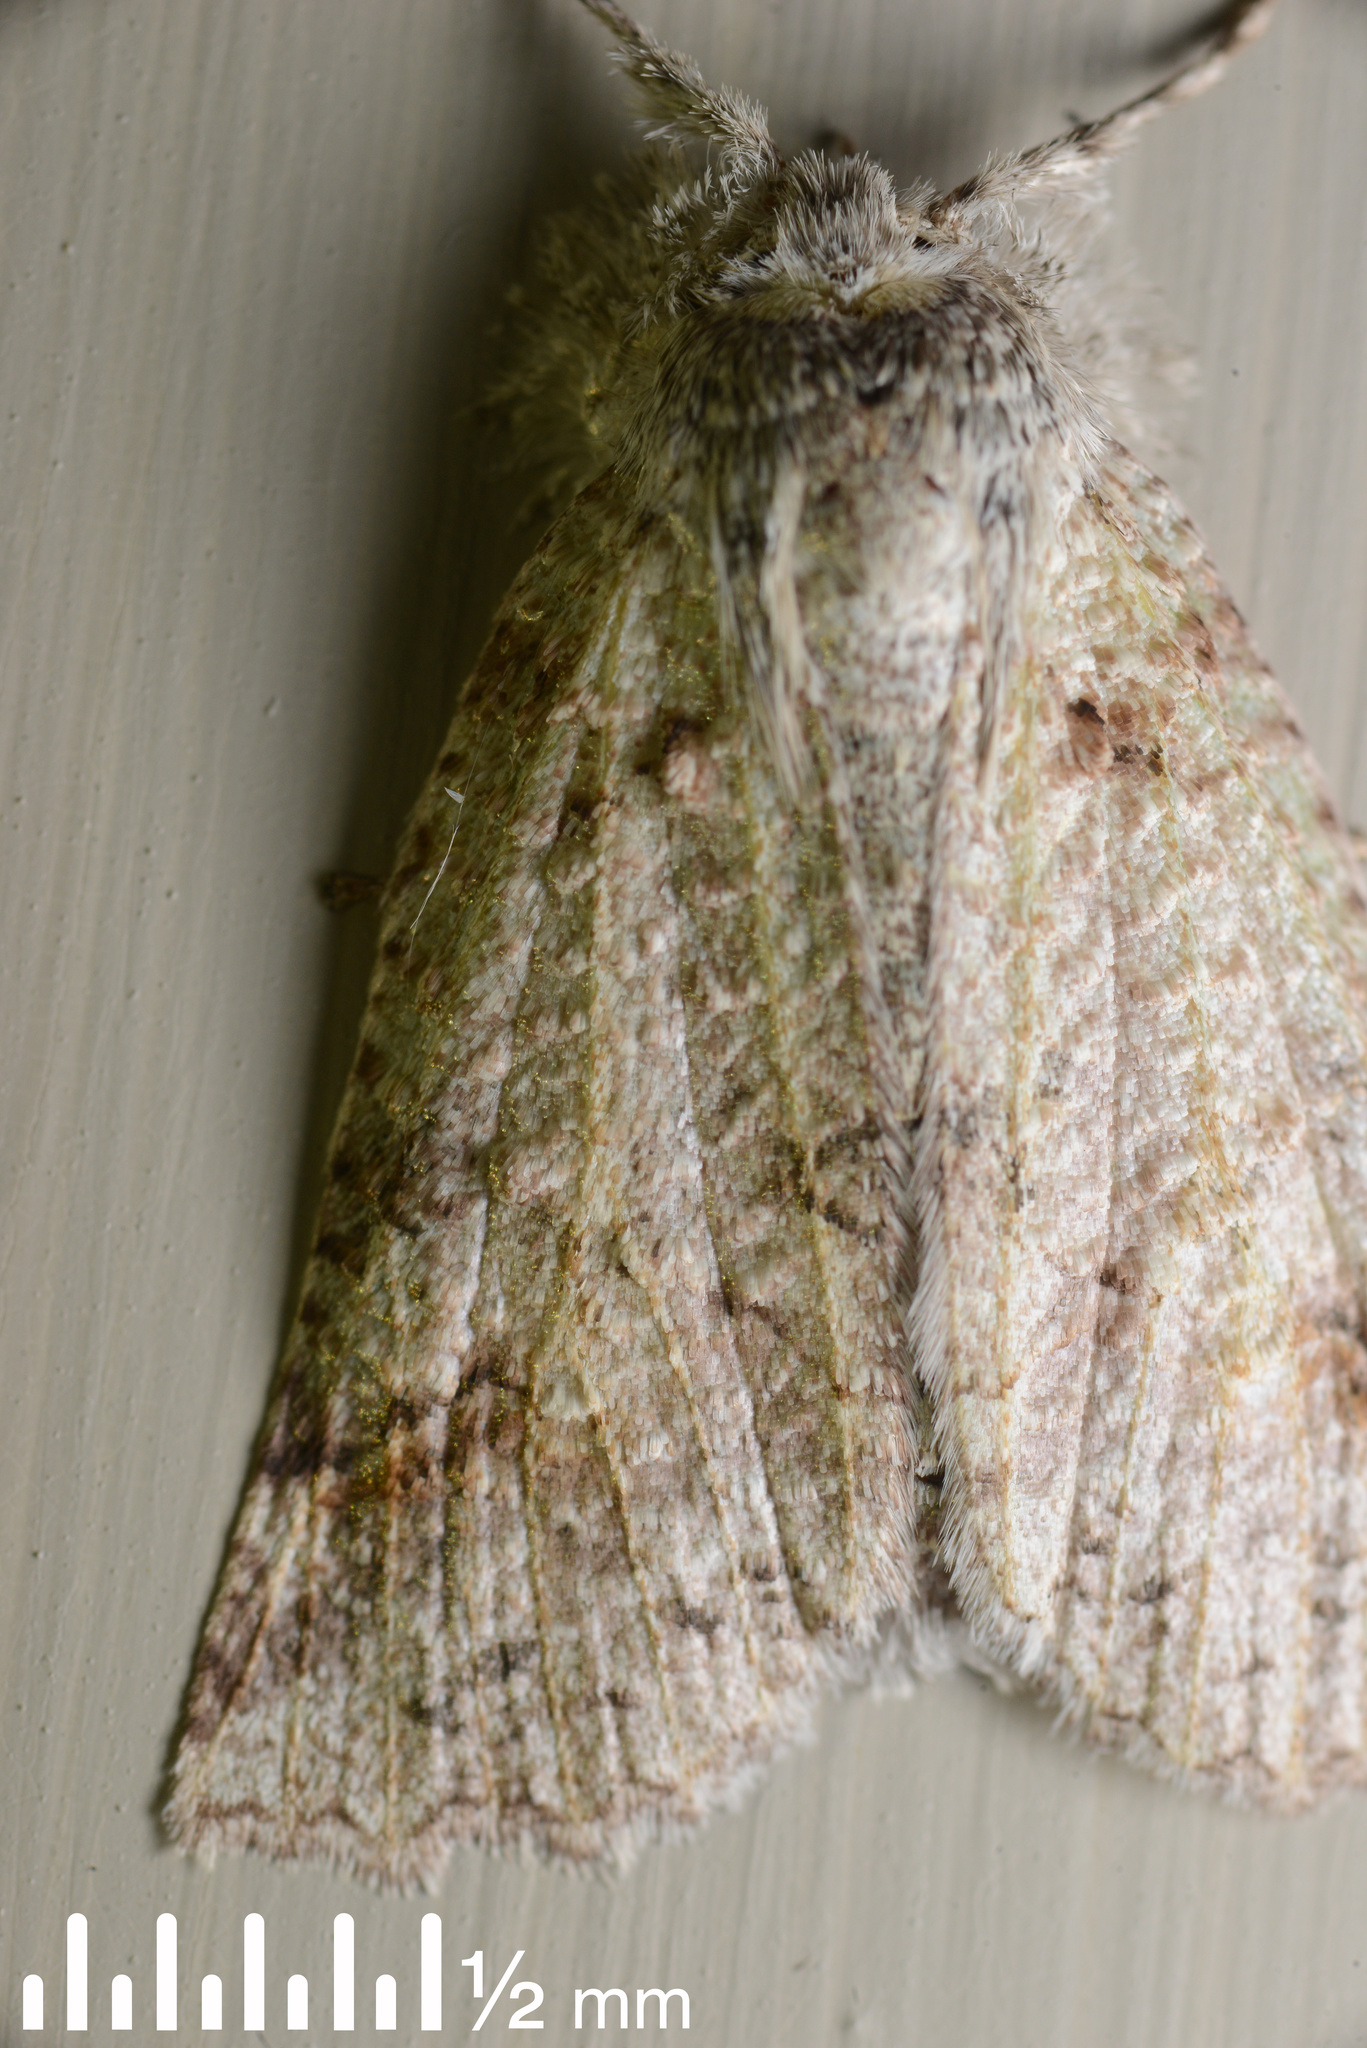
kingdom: Animalia
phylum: Arthropoda
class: Insecta
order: Lepidoptera
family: Geometridae
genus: Declana
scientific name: Declana floccosa
